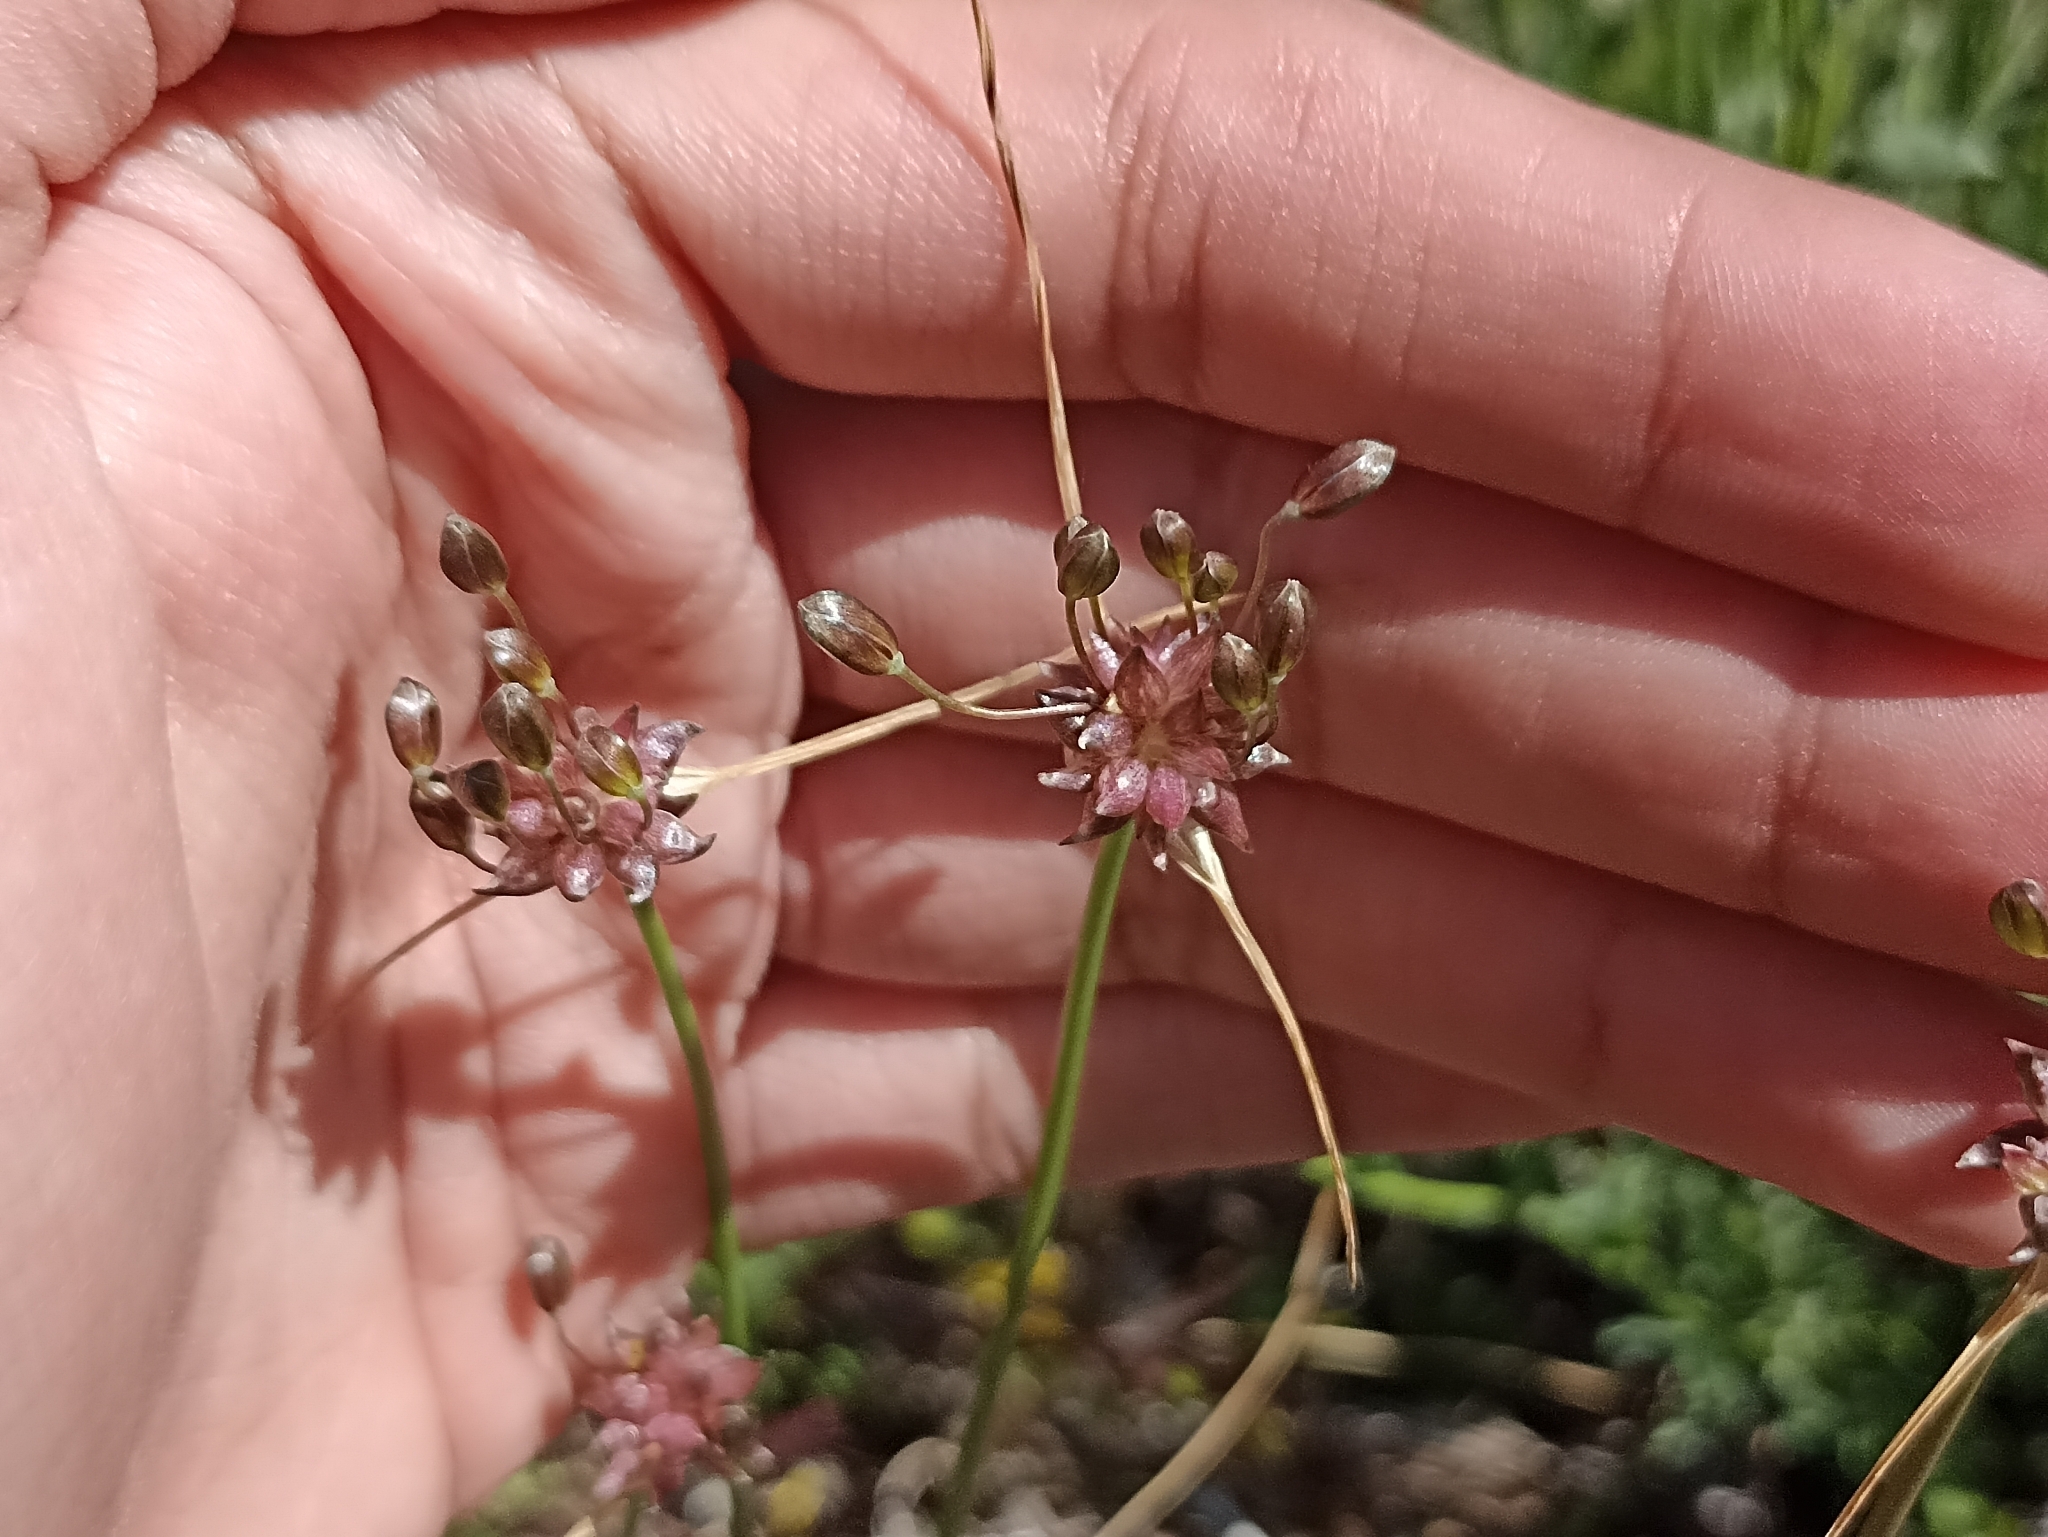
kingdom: Plantae
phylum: Tracheophyta
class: Liliopsida
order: Asparagales
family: Amaryllidaceae
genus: Allium
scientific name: Allium oleraceum
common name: Field garlic
